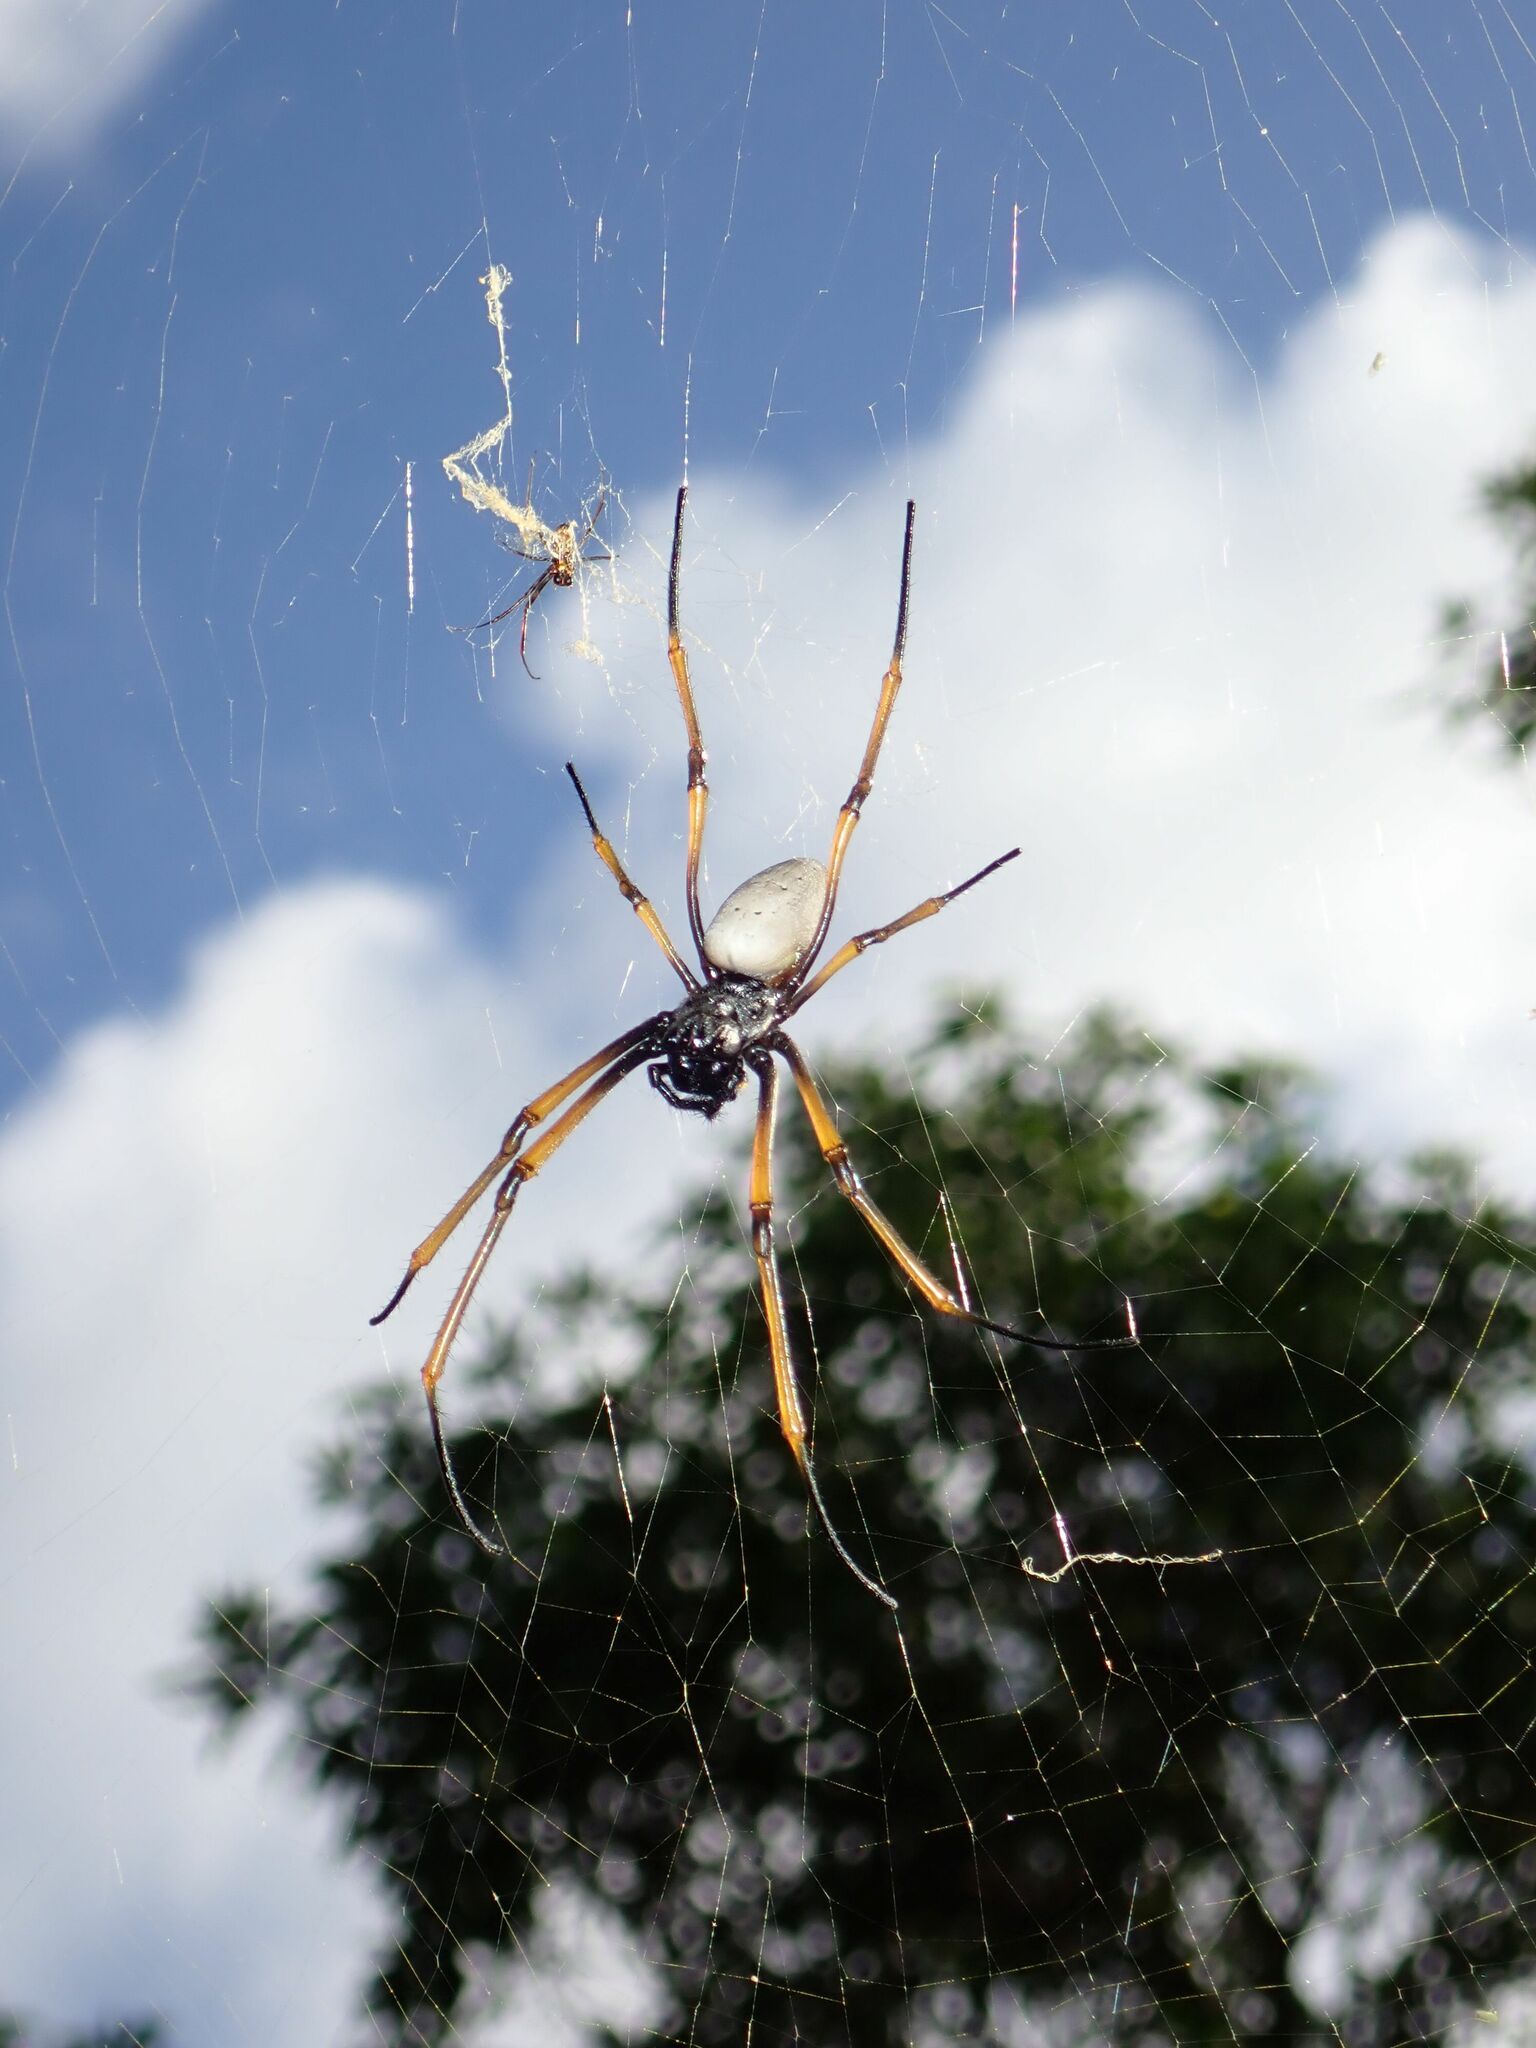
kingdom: Animalia
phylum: Arthropoda
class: Arachnida
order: Araneae
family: Araneidae
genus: Trichonephila
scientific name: Trichonephila plumipes
